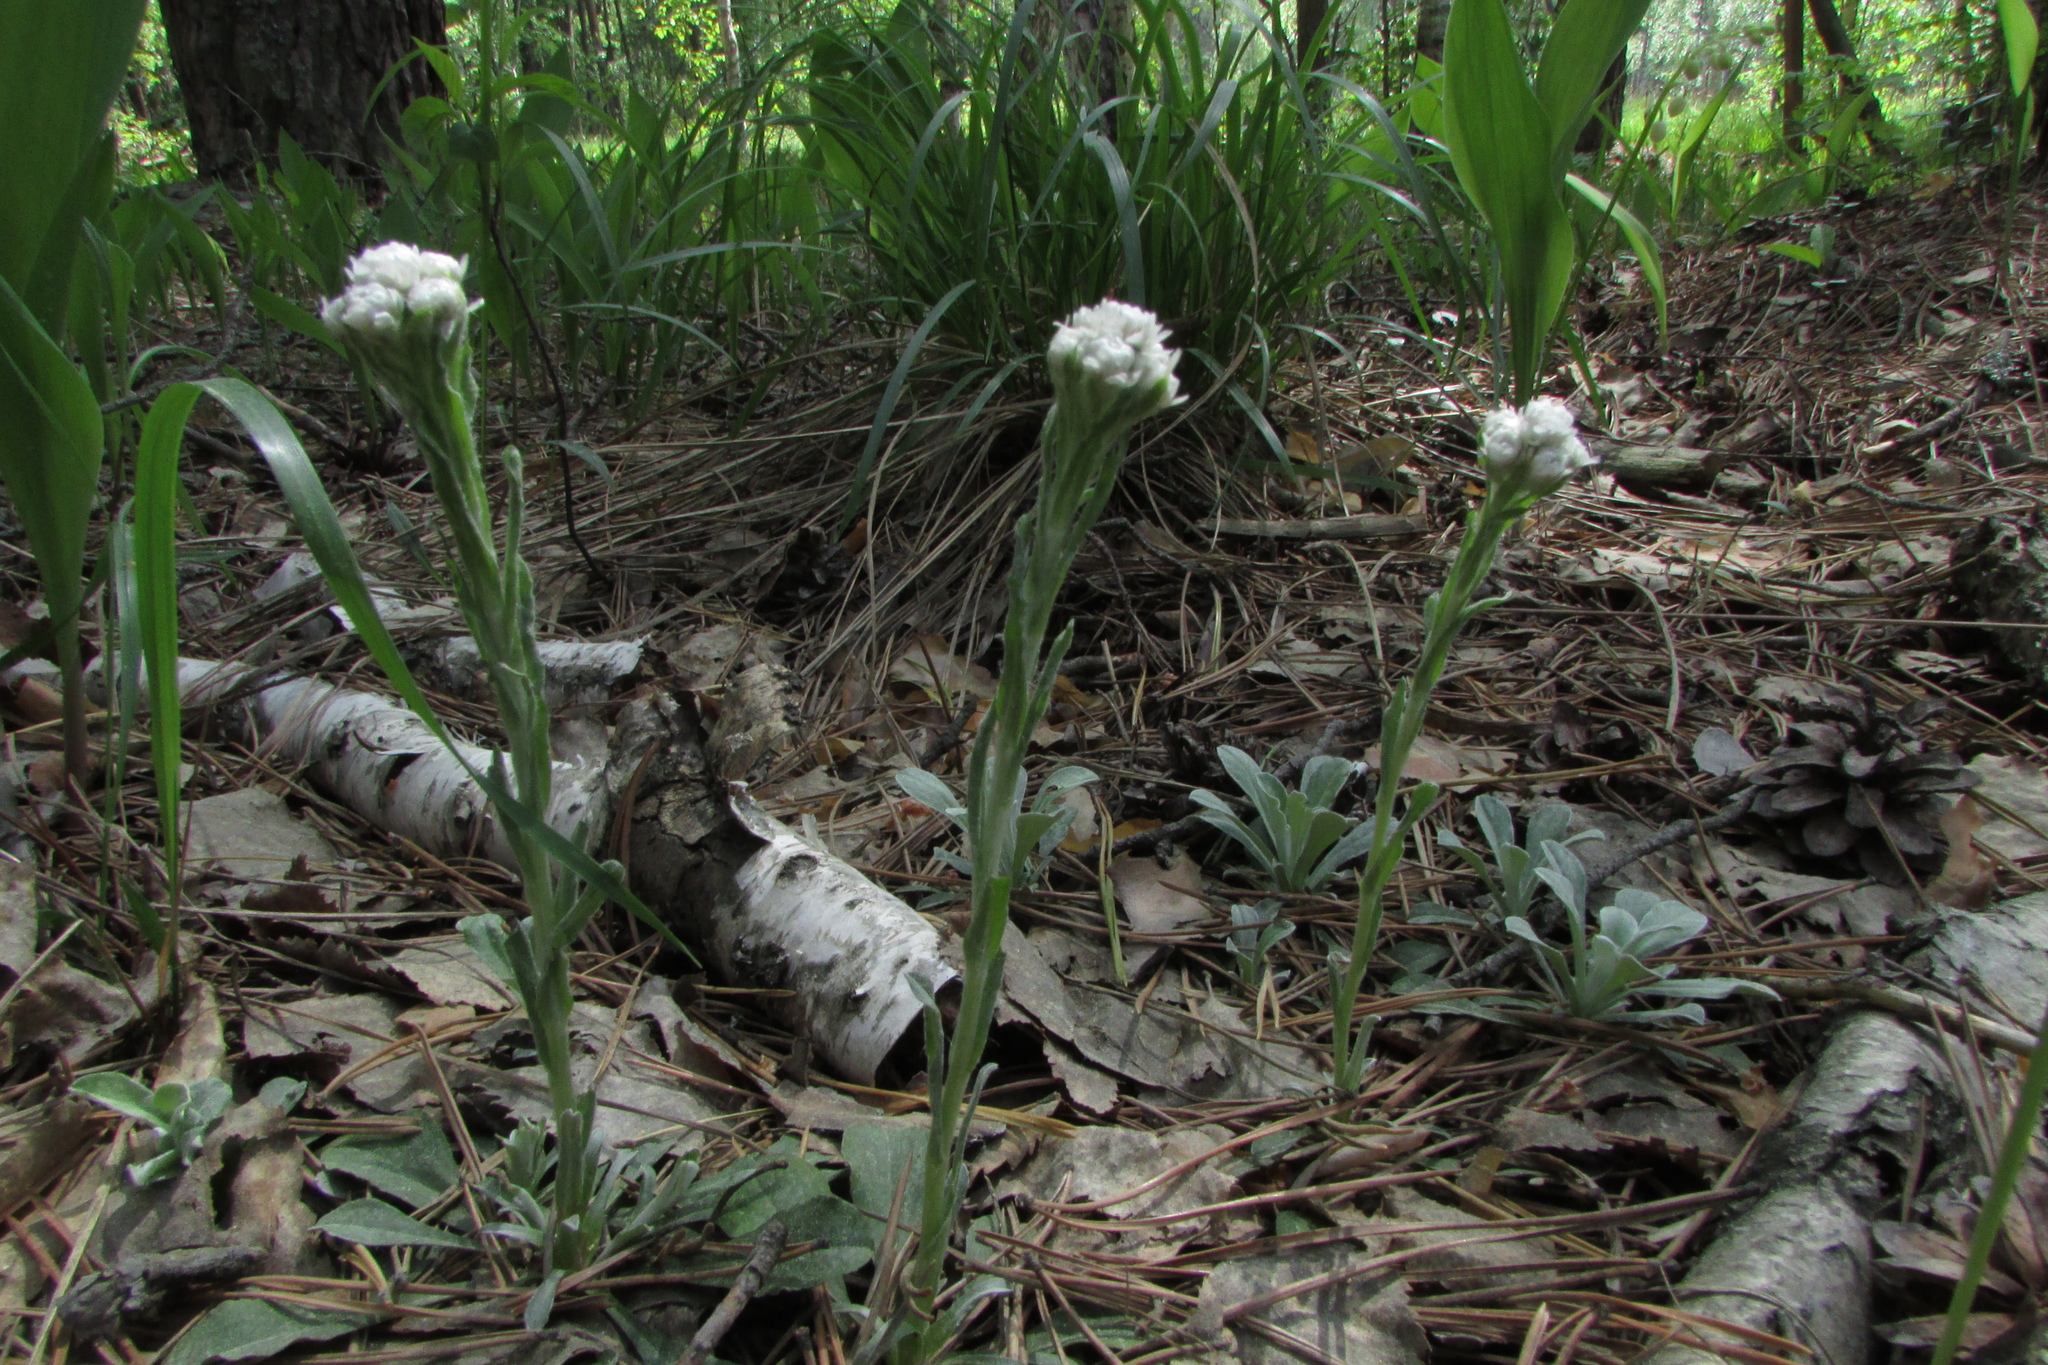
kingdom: Plantae
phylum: Tracheophyta
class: Magnoliopsida
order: Asterales
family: Asteraceae
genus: Antennaria
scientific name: Antennaria dioica
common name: Mountain everlasting
